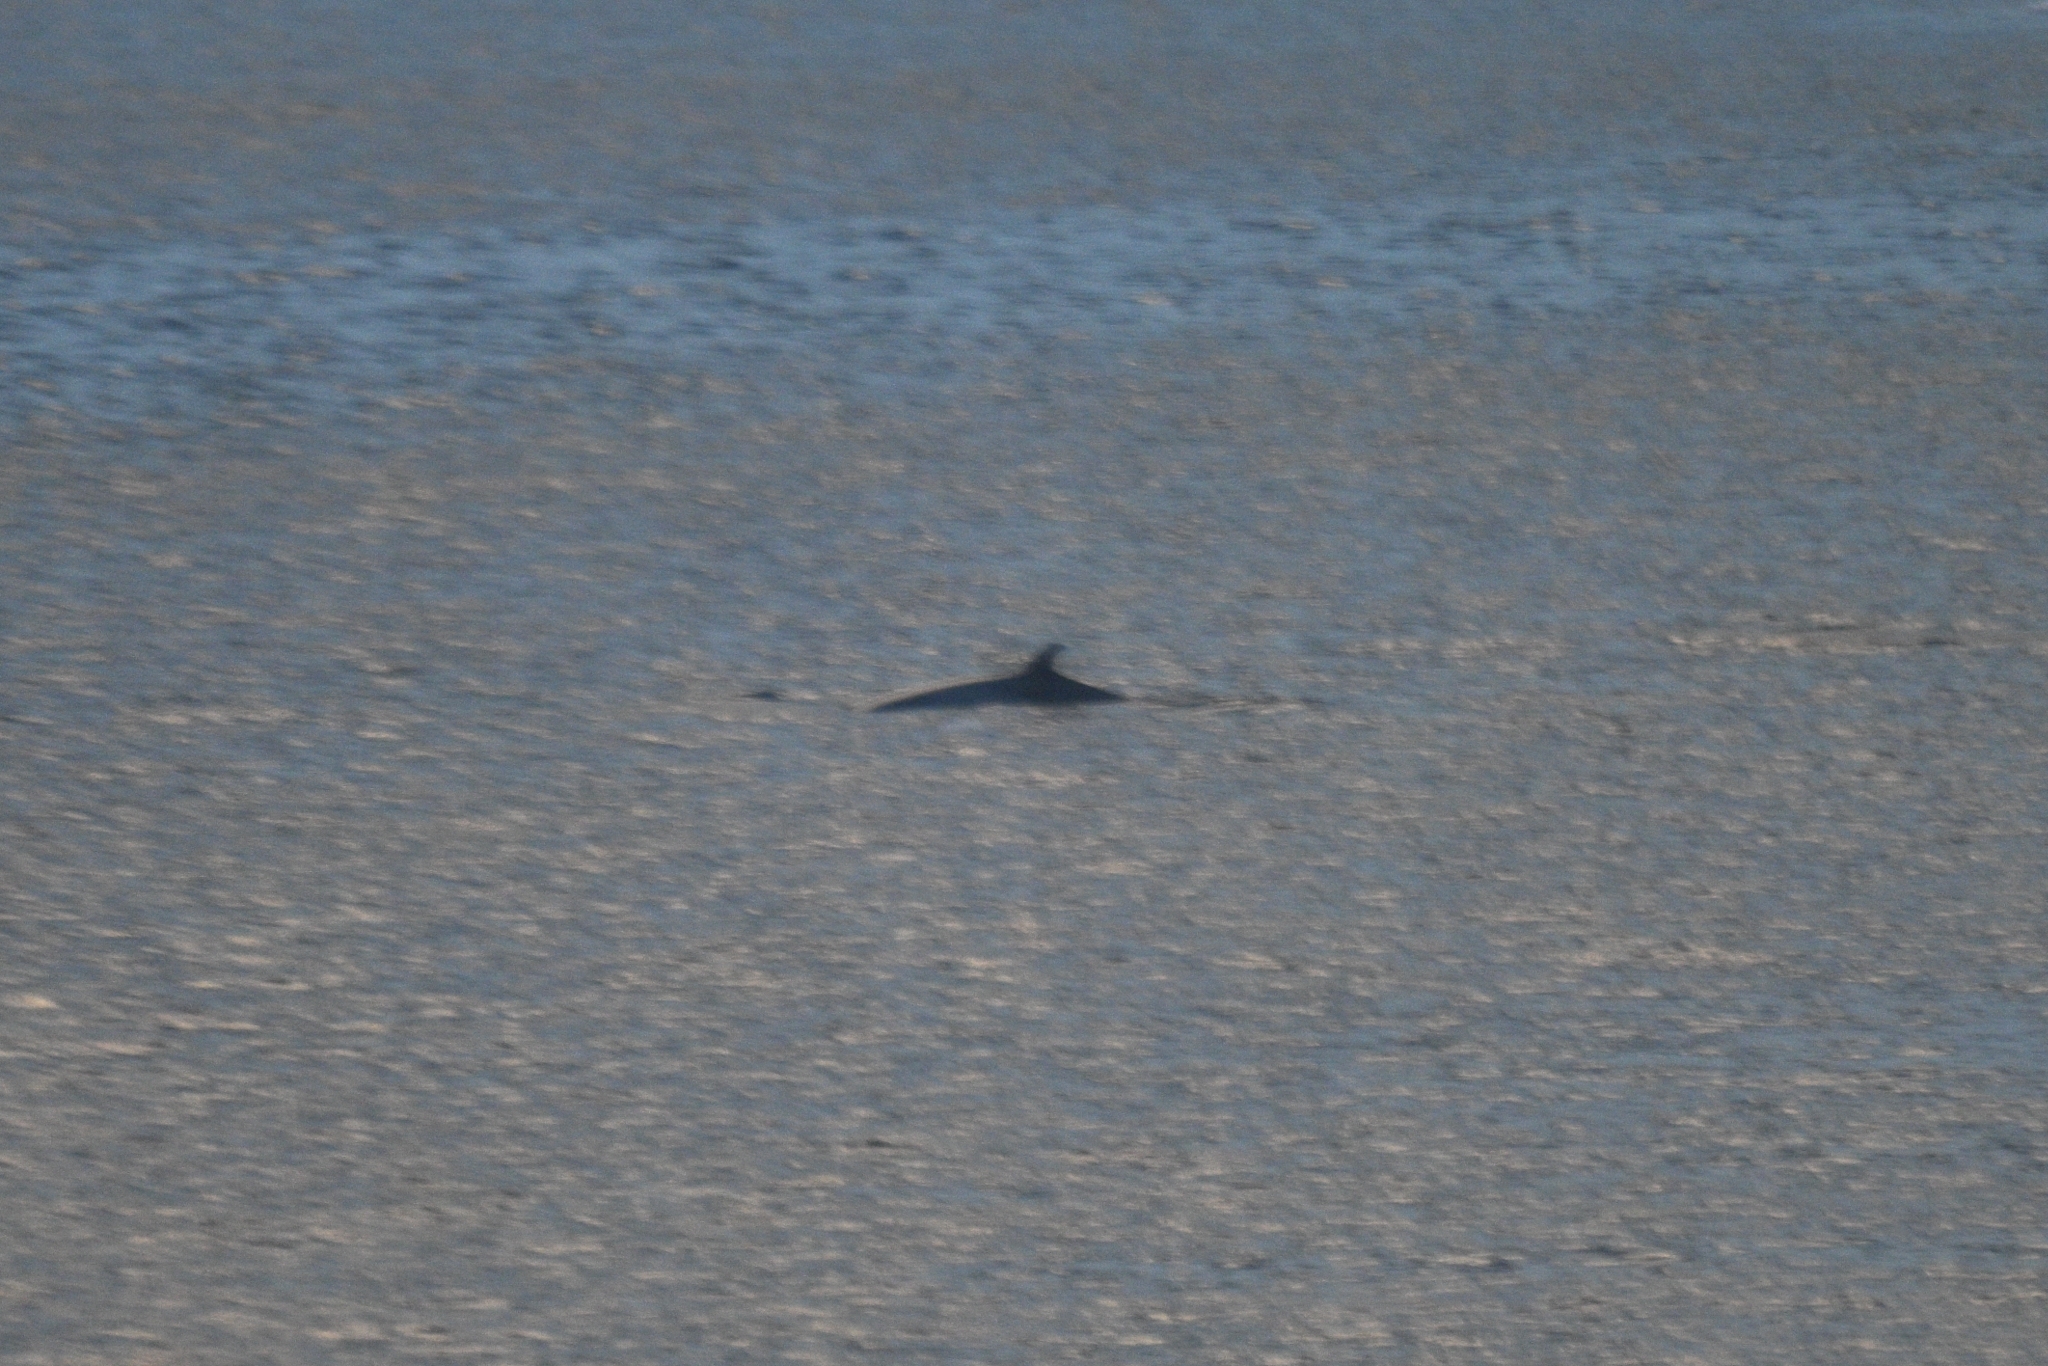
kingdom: Animalia
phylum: Chordata
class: Mammalia
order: Cetacea
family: Balaenopteridae
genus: Balaenoptera
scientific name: Balaenoptera bonaerensis
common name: Antarctic minke whale
